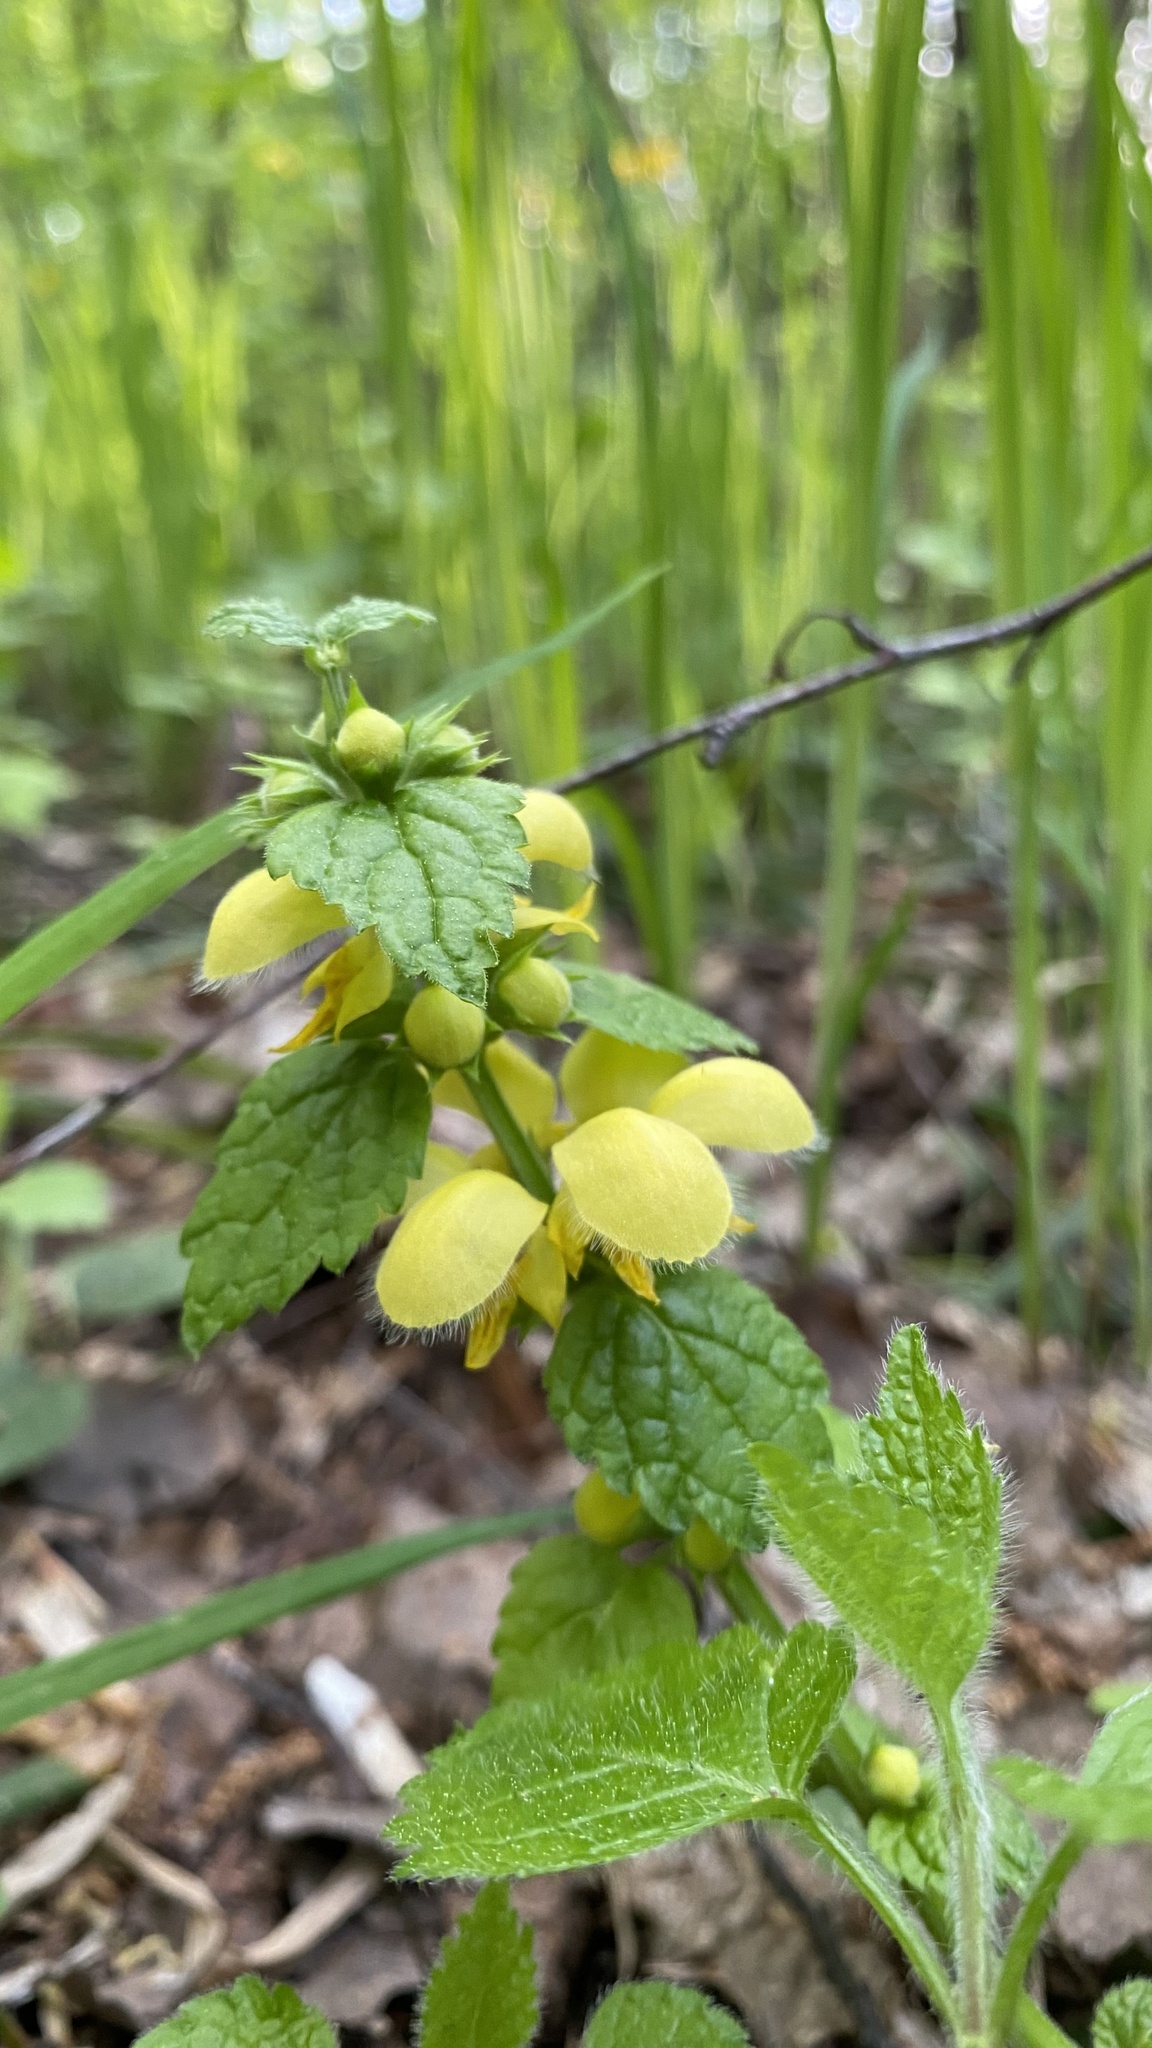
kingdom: Plantae
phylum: Tracheophyta
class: Magnoliopsida
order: Lamiales
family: Lamiaceae
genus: Lamium
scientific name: Lamium galeobdolon
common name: Yellow archangel
